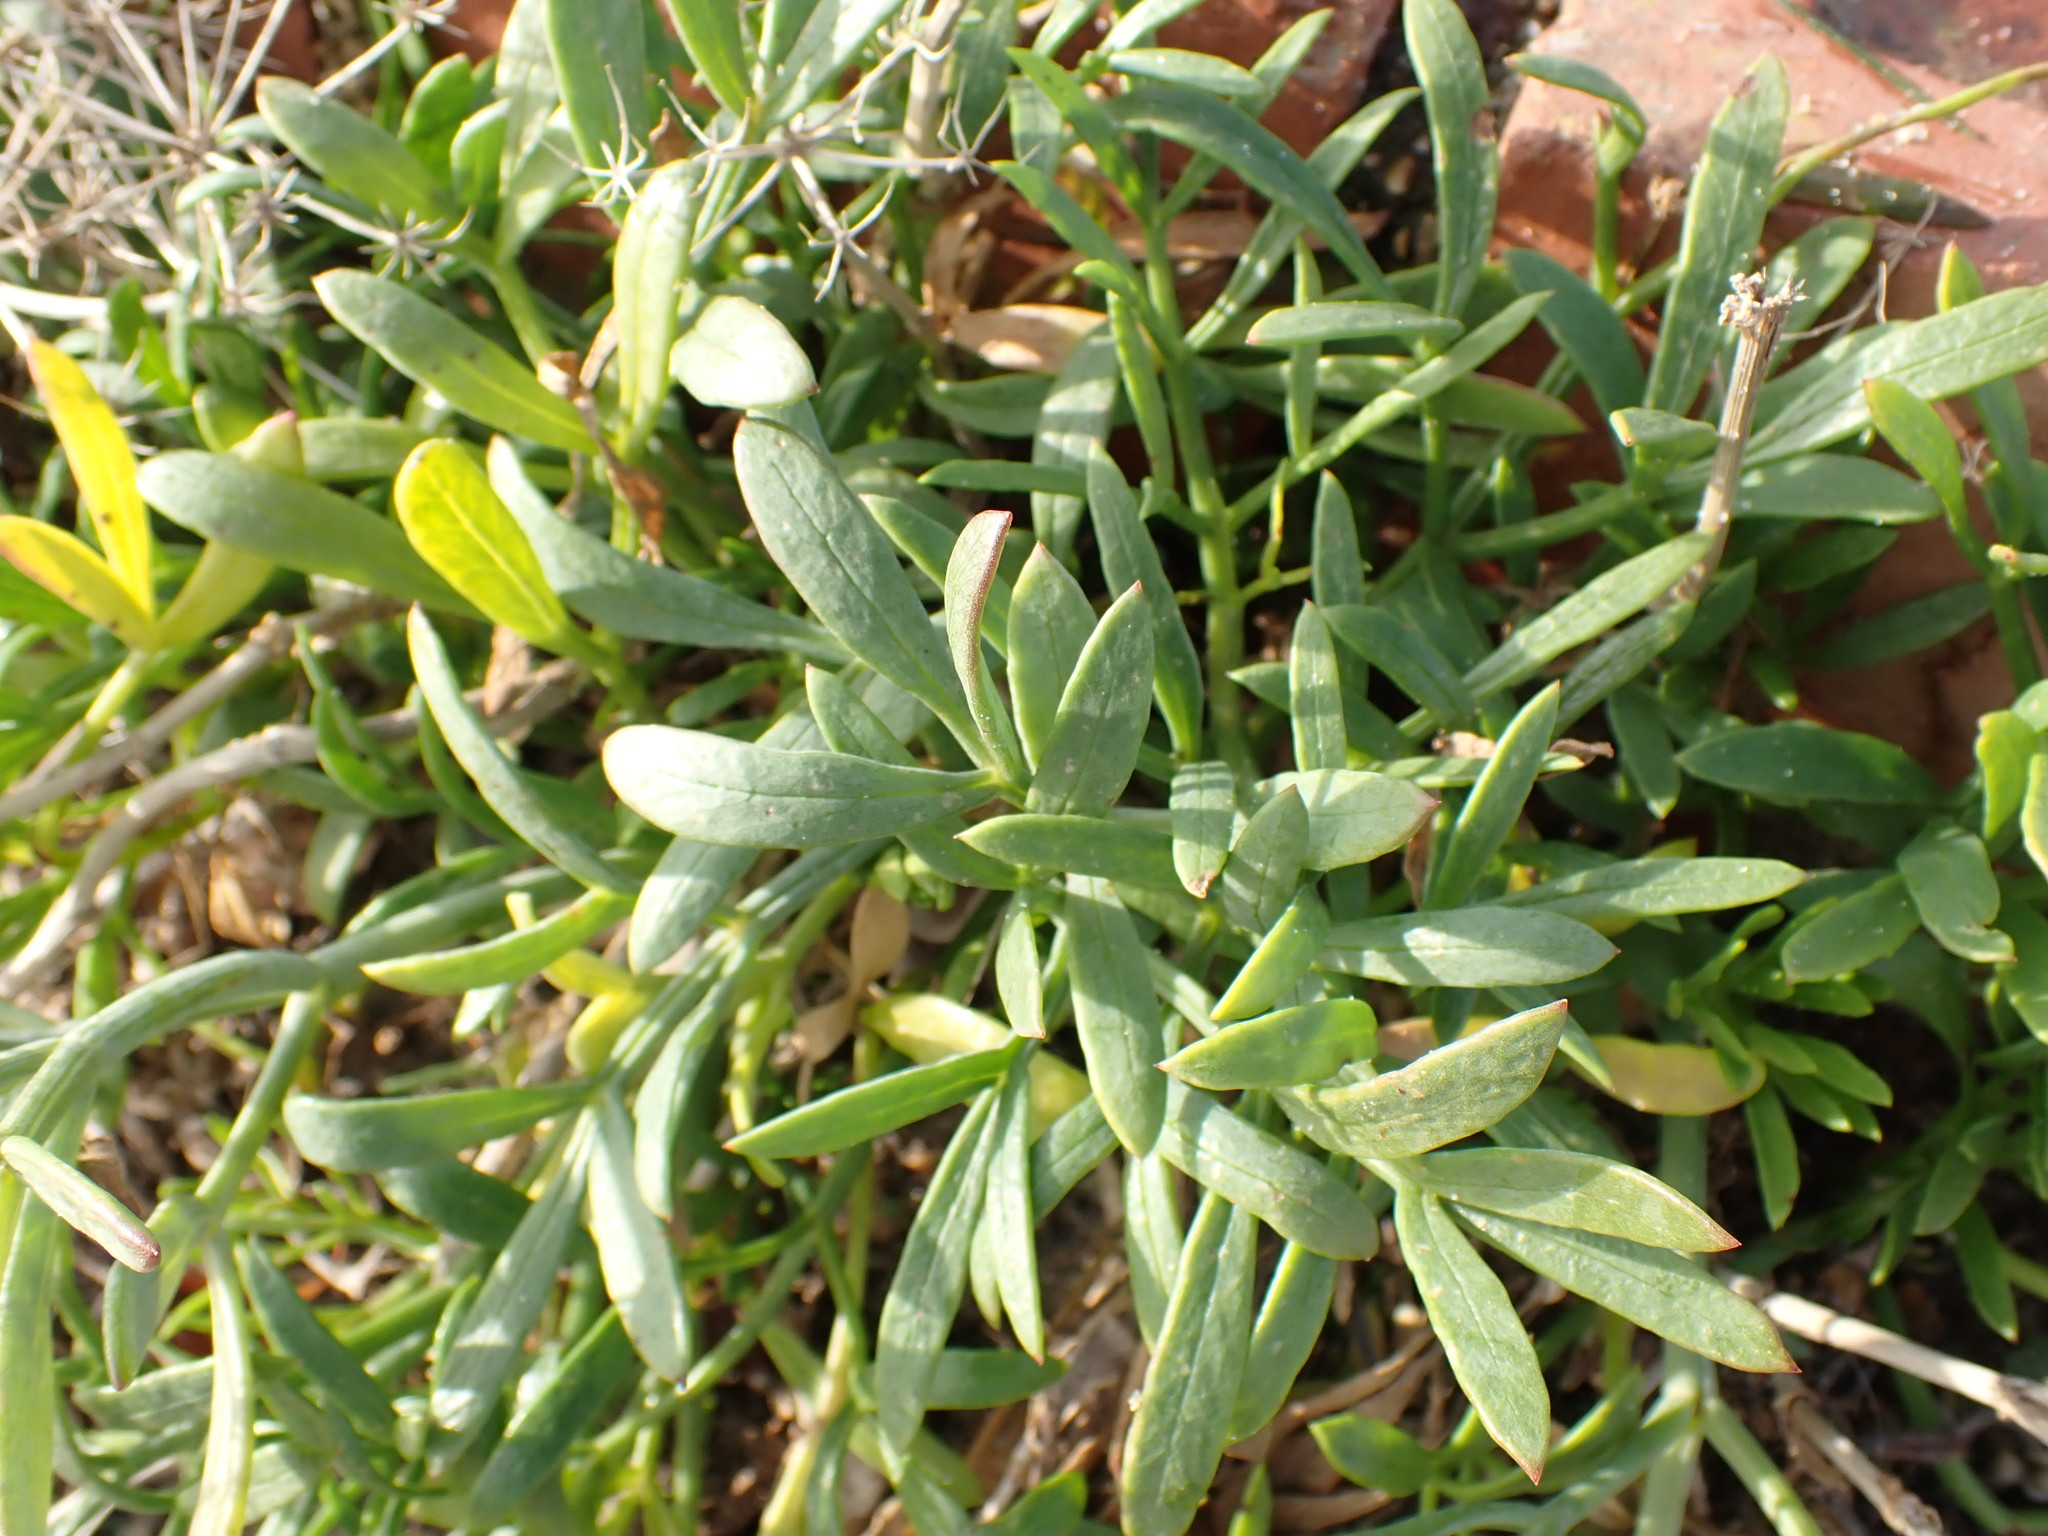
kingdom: Plantae
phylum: Tracheophyta
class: Magnoliopsida
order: Apiales
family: Apiaceae
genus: Crithmum
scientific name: Crithmum maritimum
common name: Rock samphire
